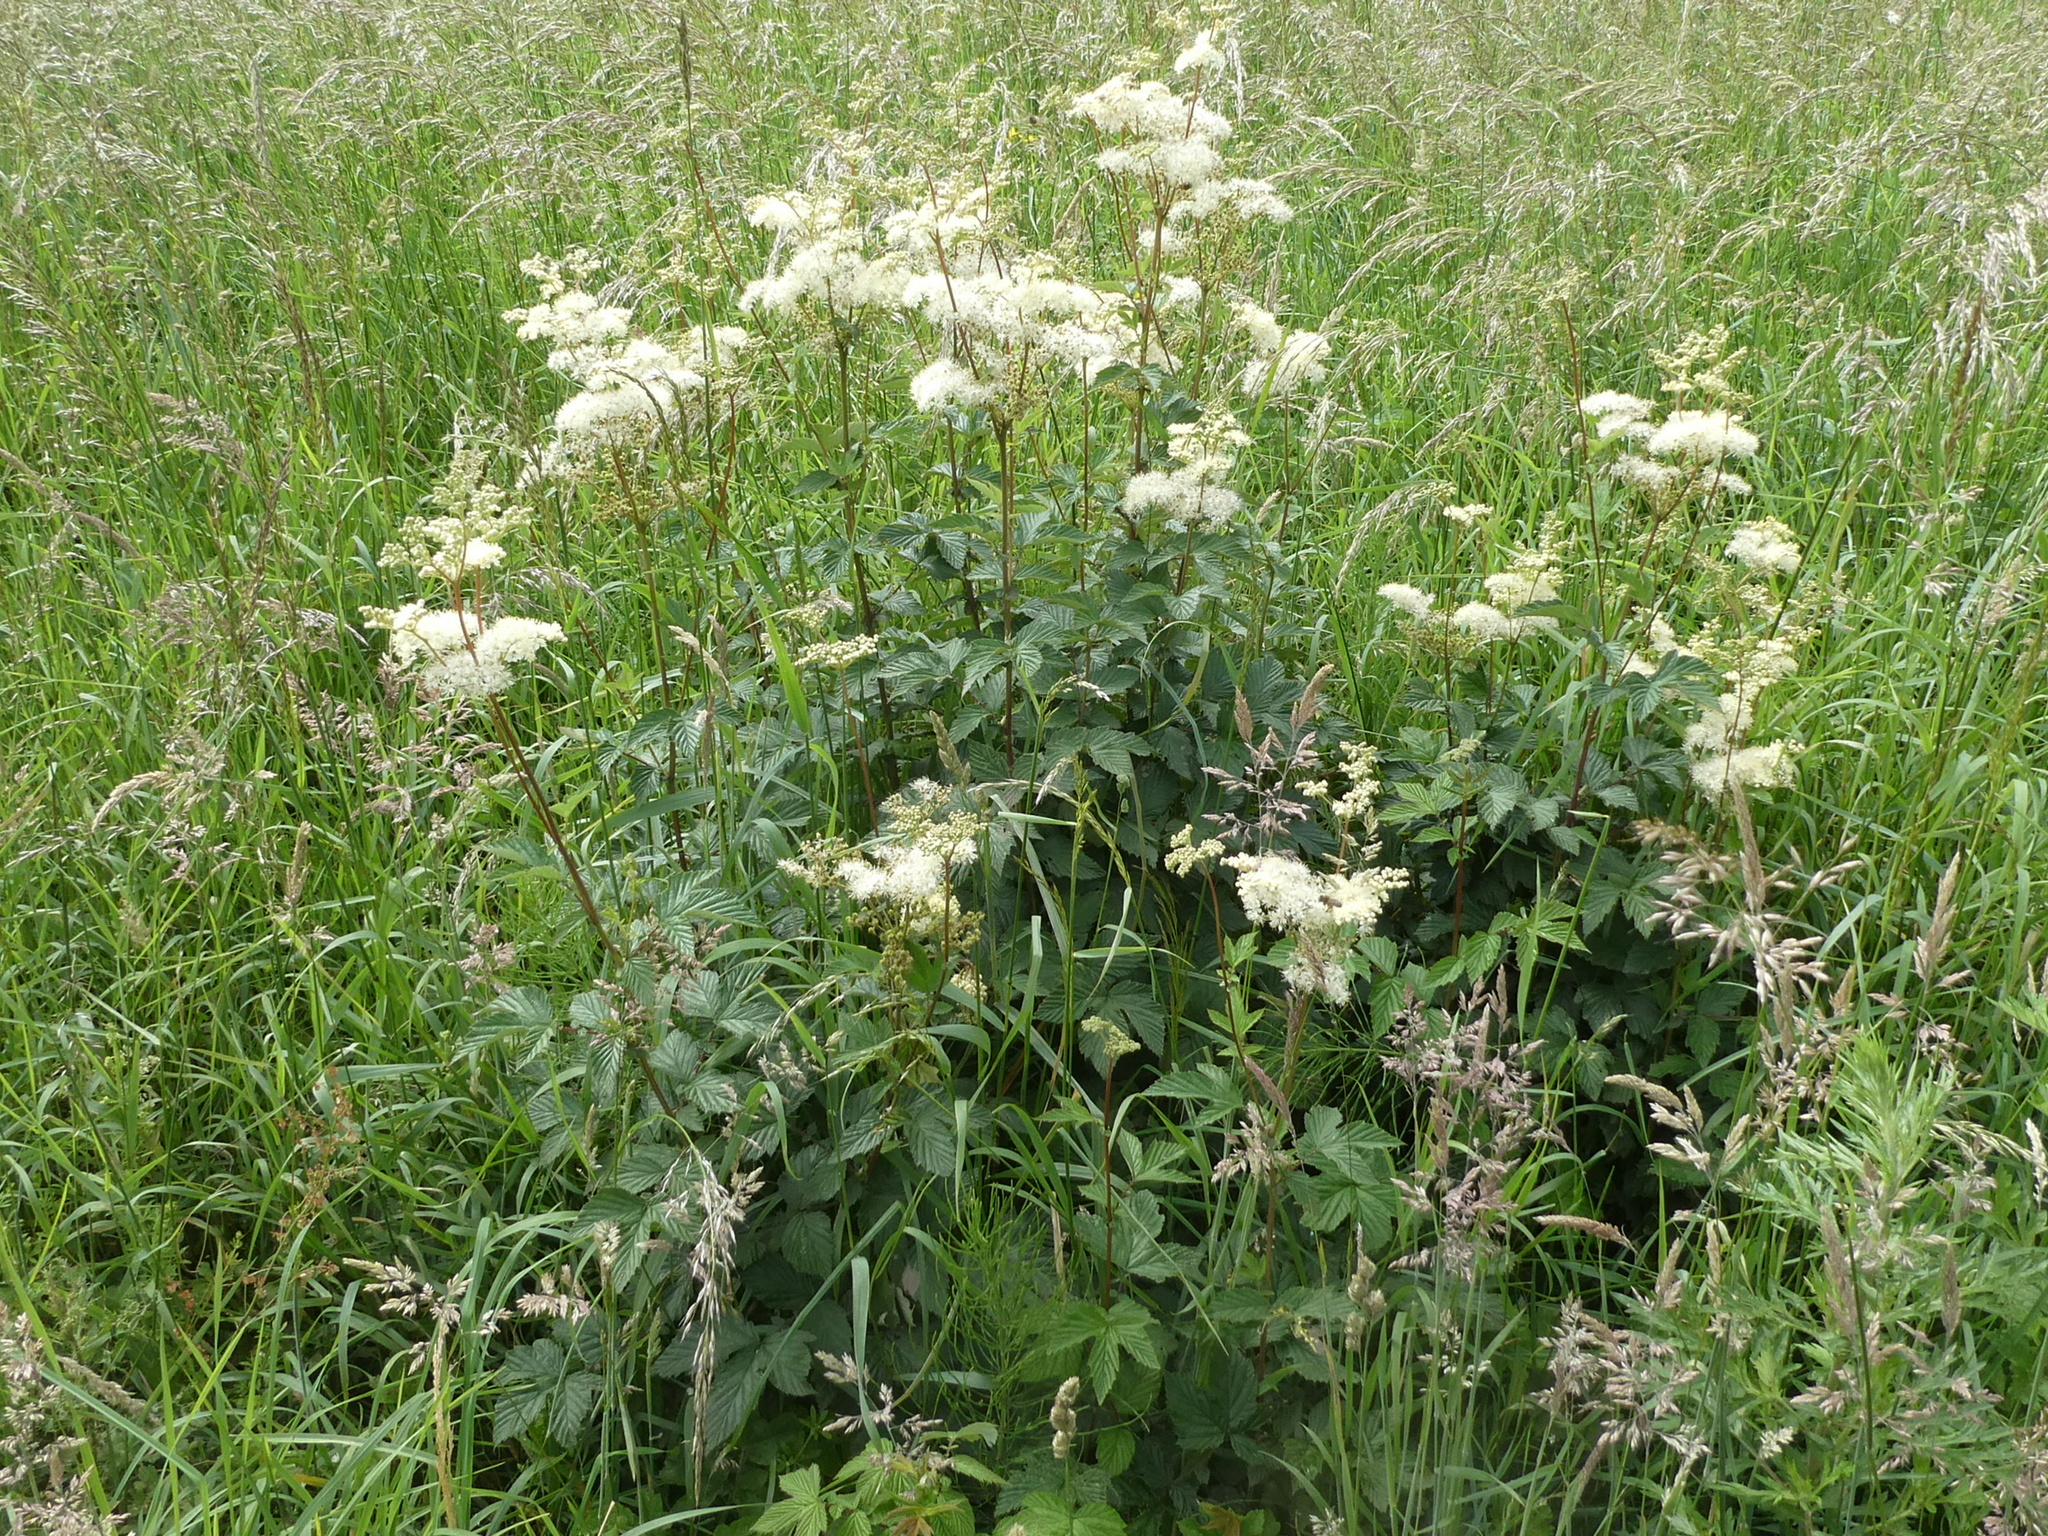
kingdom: Plantae
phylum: Tracheophyta
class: Magnoliopsida
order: Rosales
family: Rosaceae
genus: Filipendula
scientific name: Filipendula ulmaria
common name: Meadowsweet
